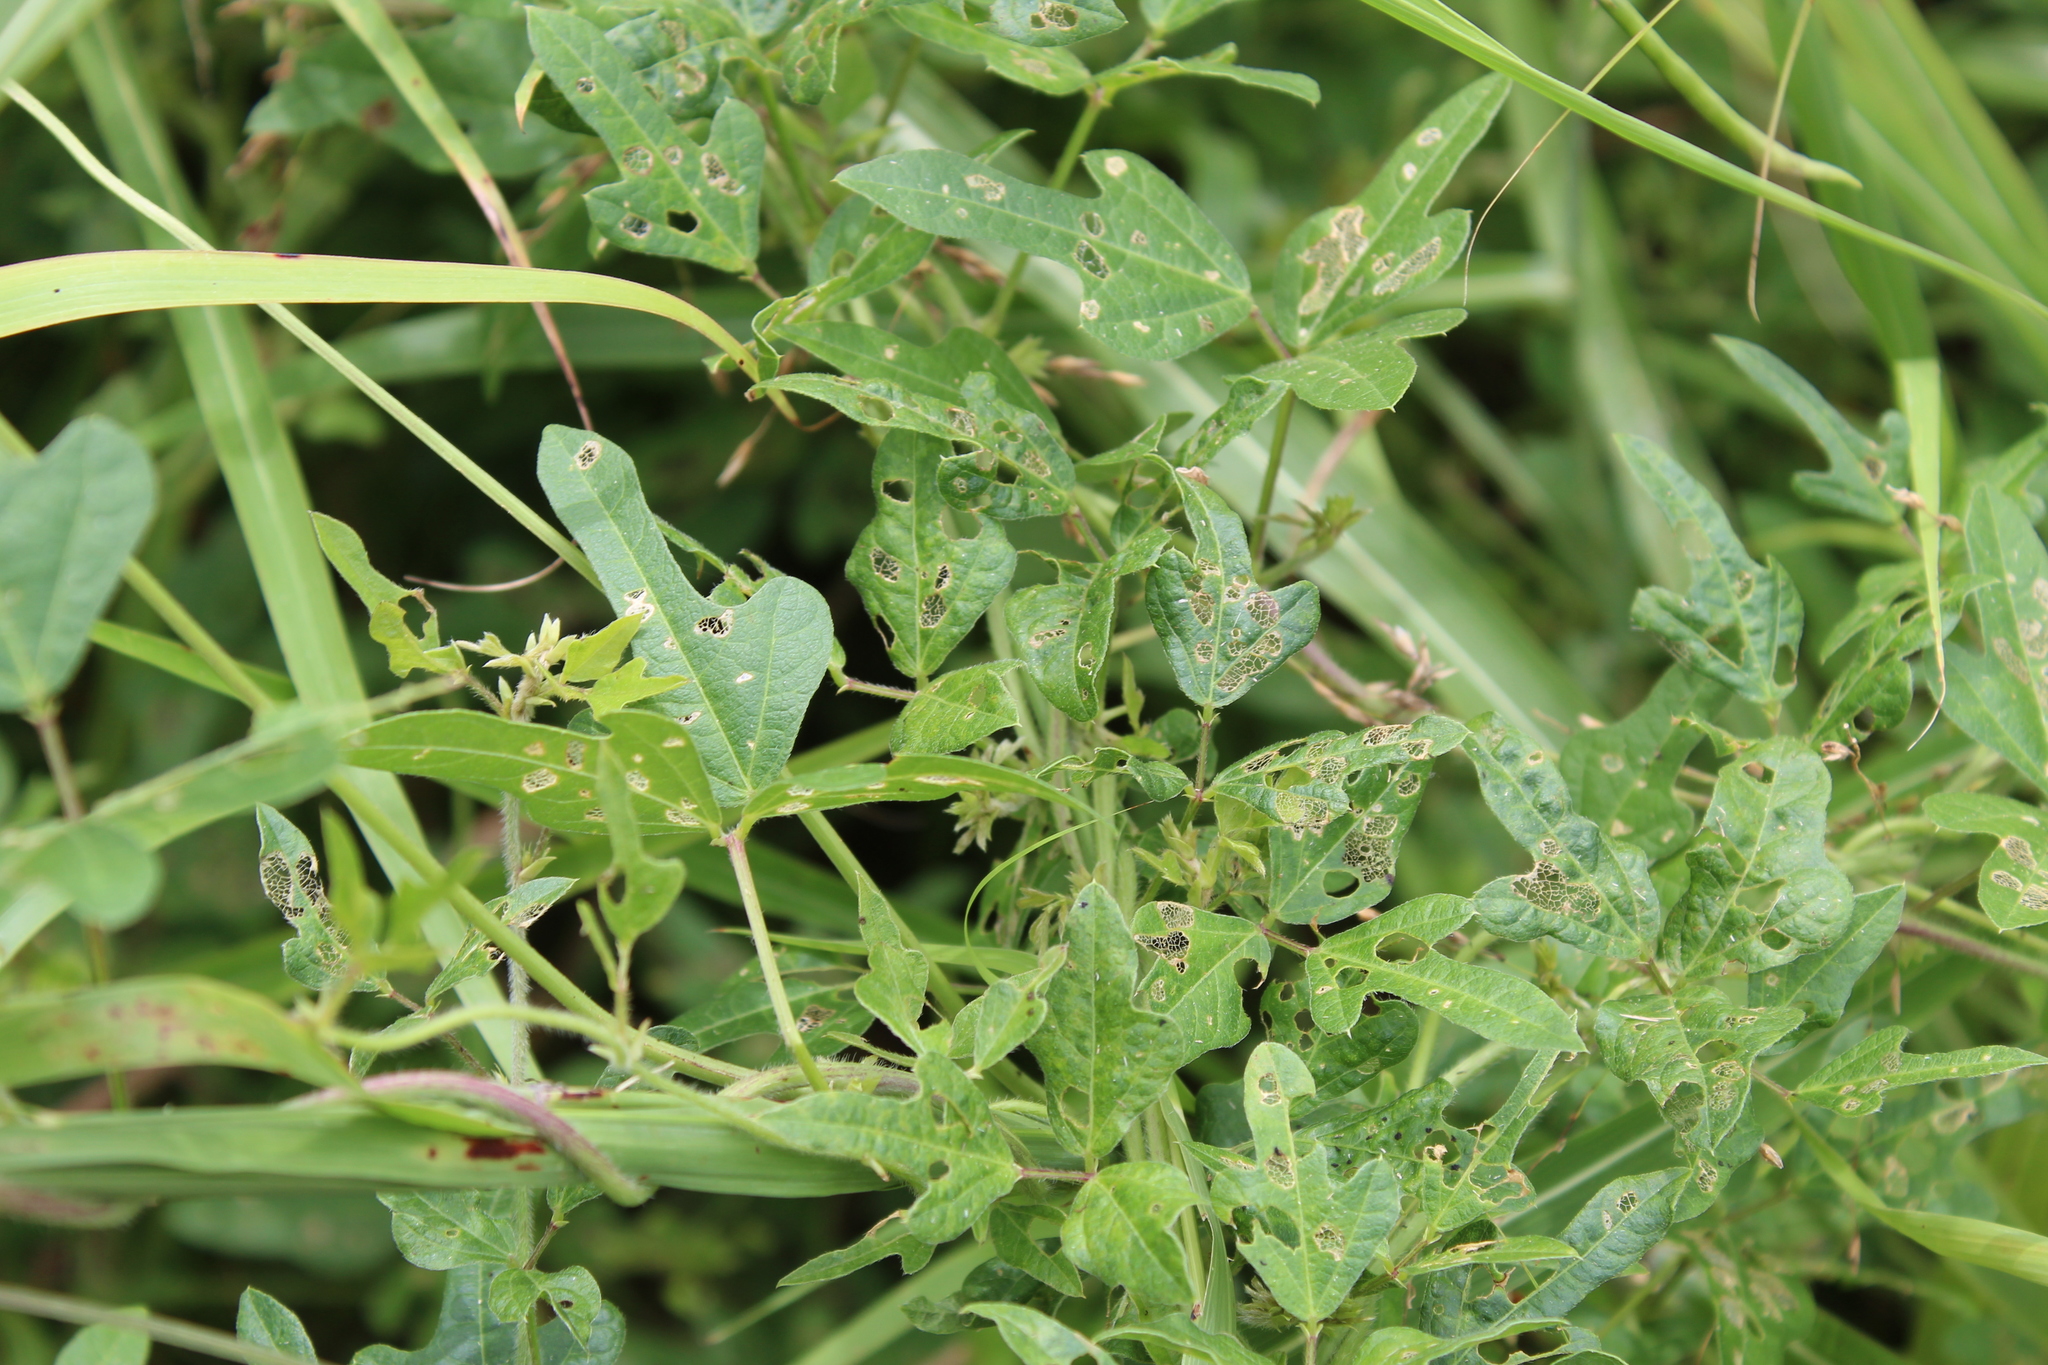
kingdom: Plantae
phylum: Tracheophyta
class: Magnoliopsida
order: Fabales
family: Fabaceae
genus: Strophostyles
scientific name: Strophostyles helvola
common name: Trailing wild bean
